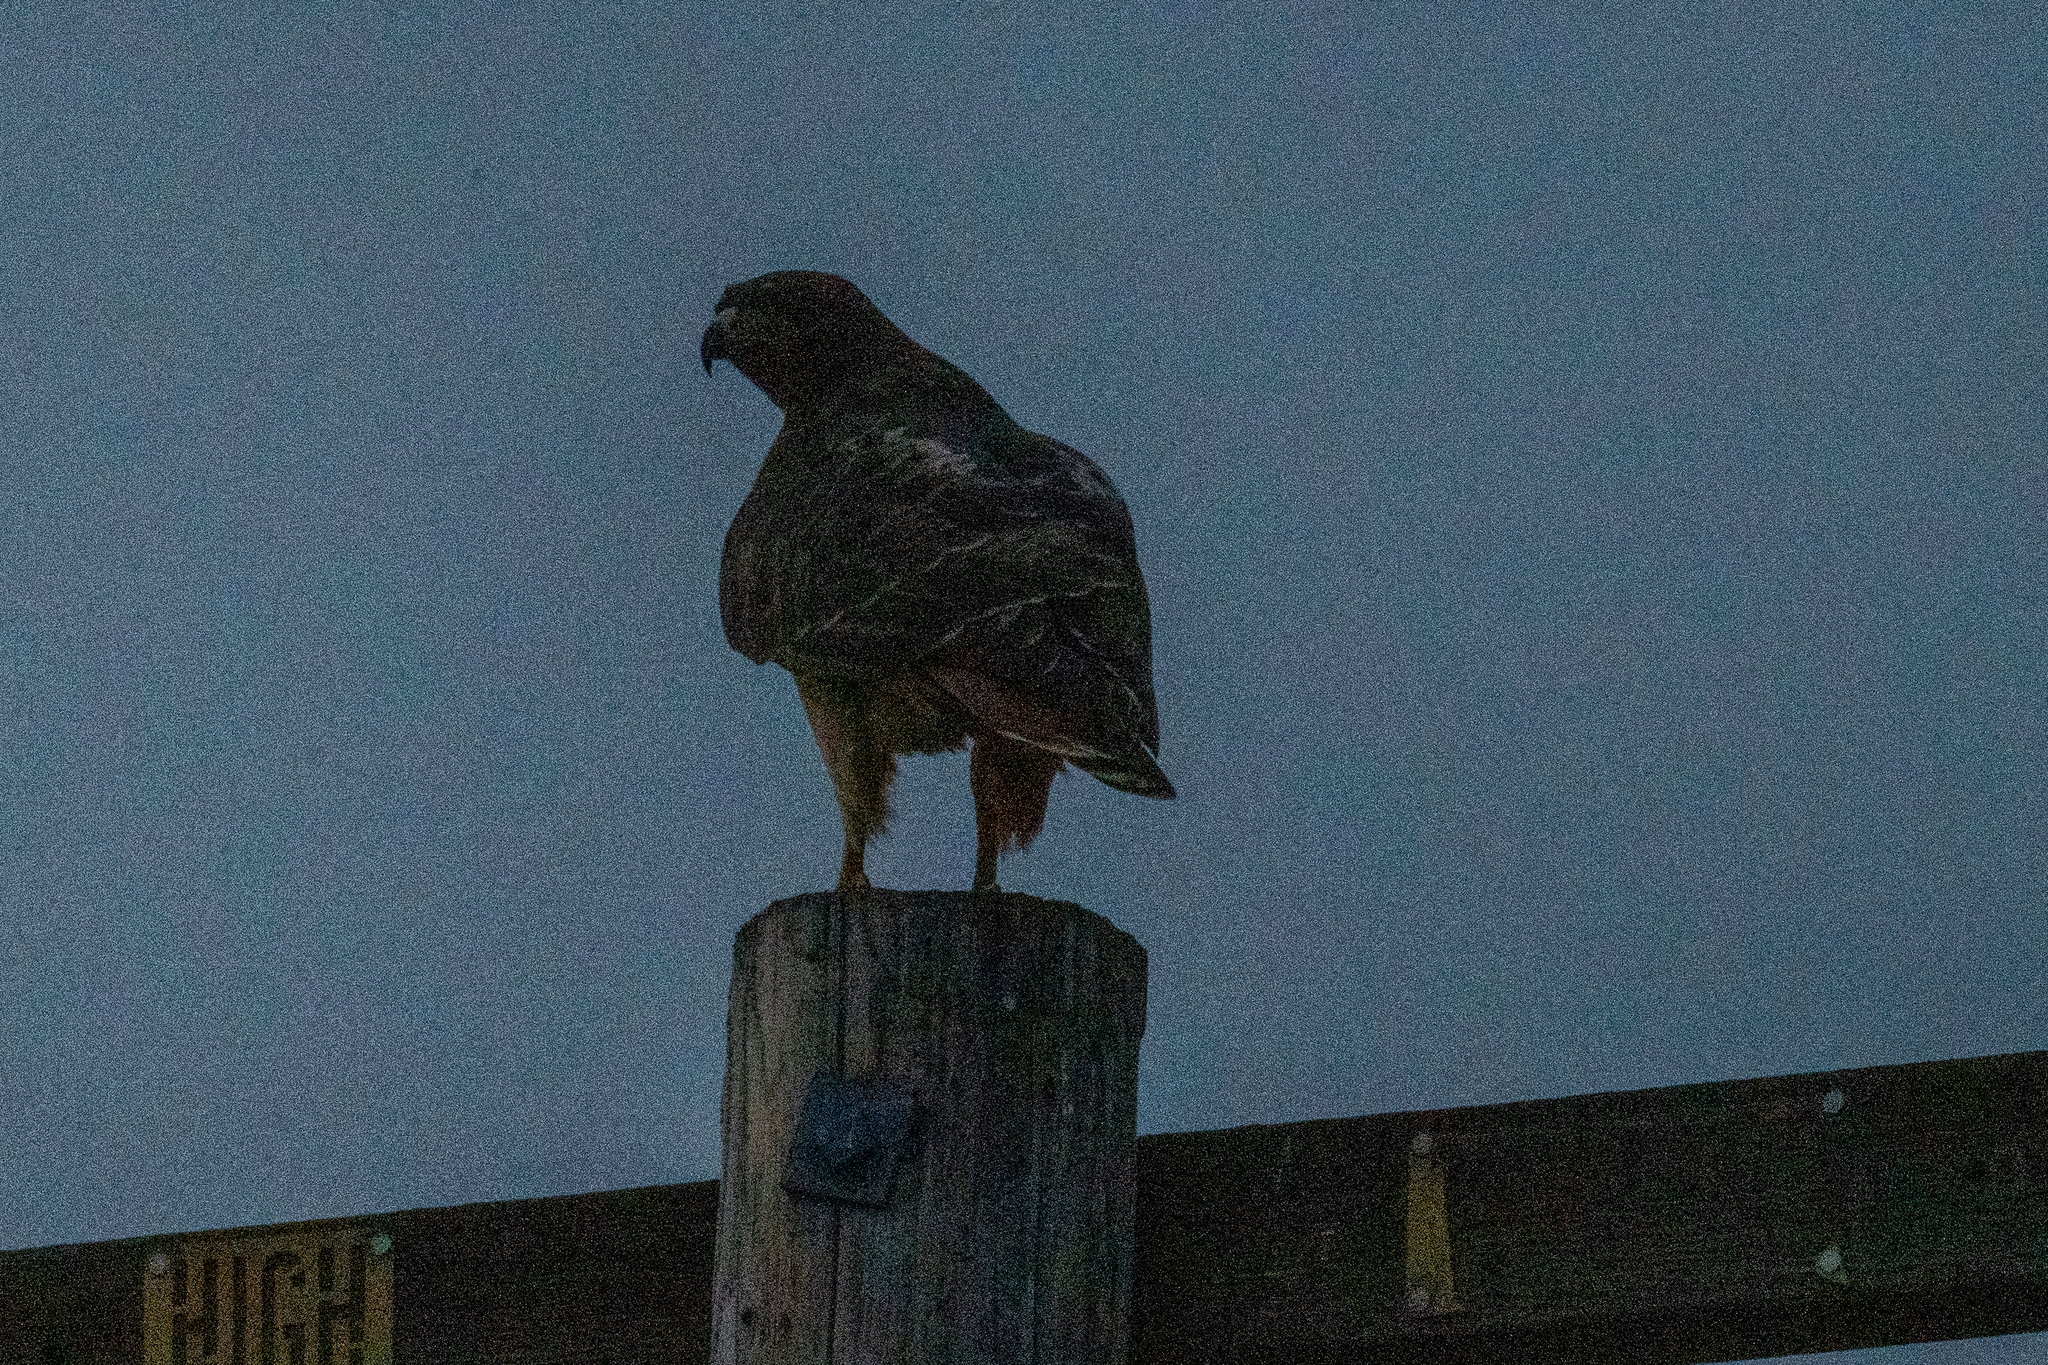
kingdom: Animalia
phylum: Chordata
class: Aves
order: Accipitriformes
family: Accipitridae
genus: Buteo
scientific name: Buteo jamaicensis
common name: Red-tailed hawk
